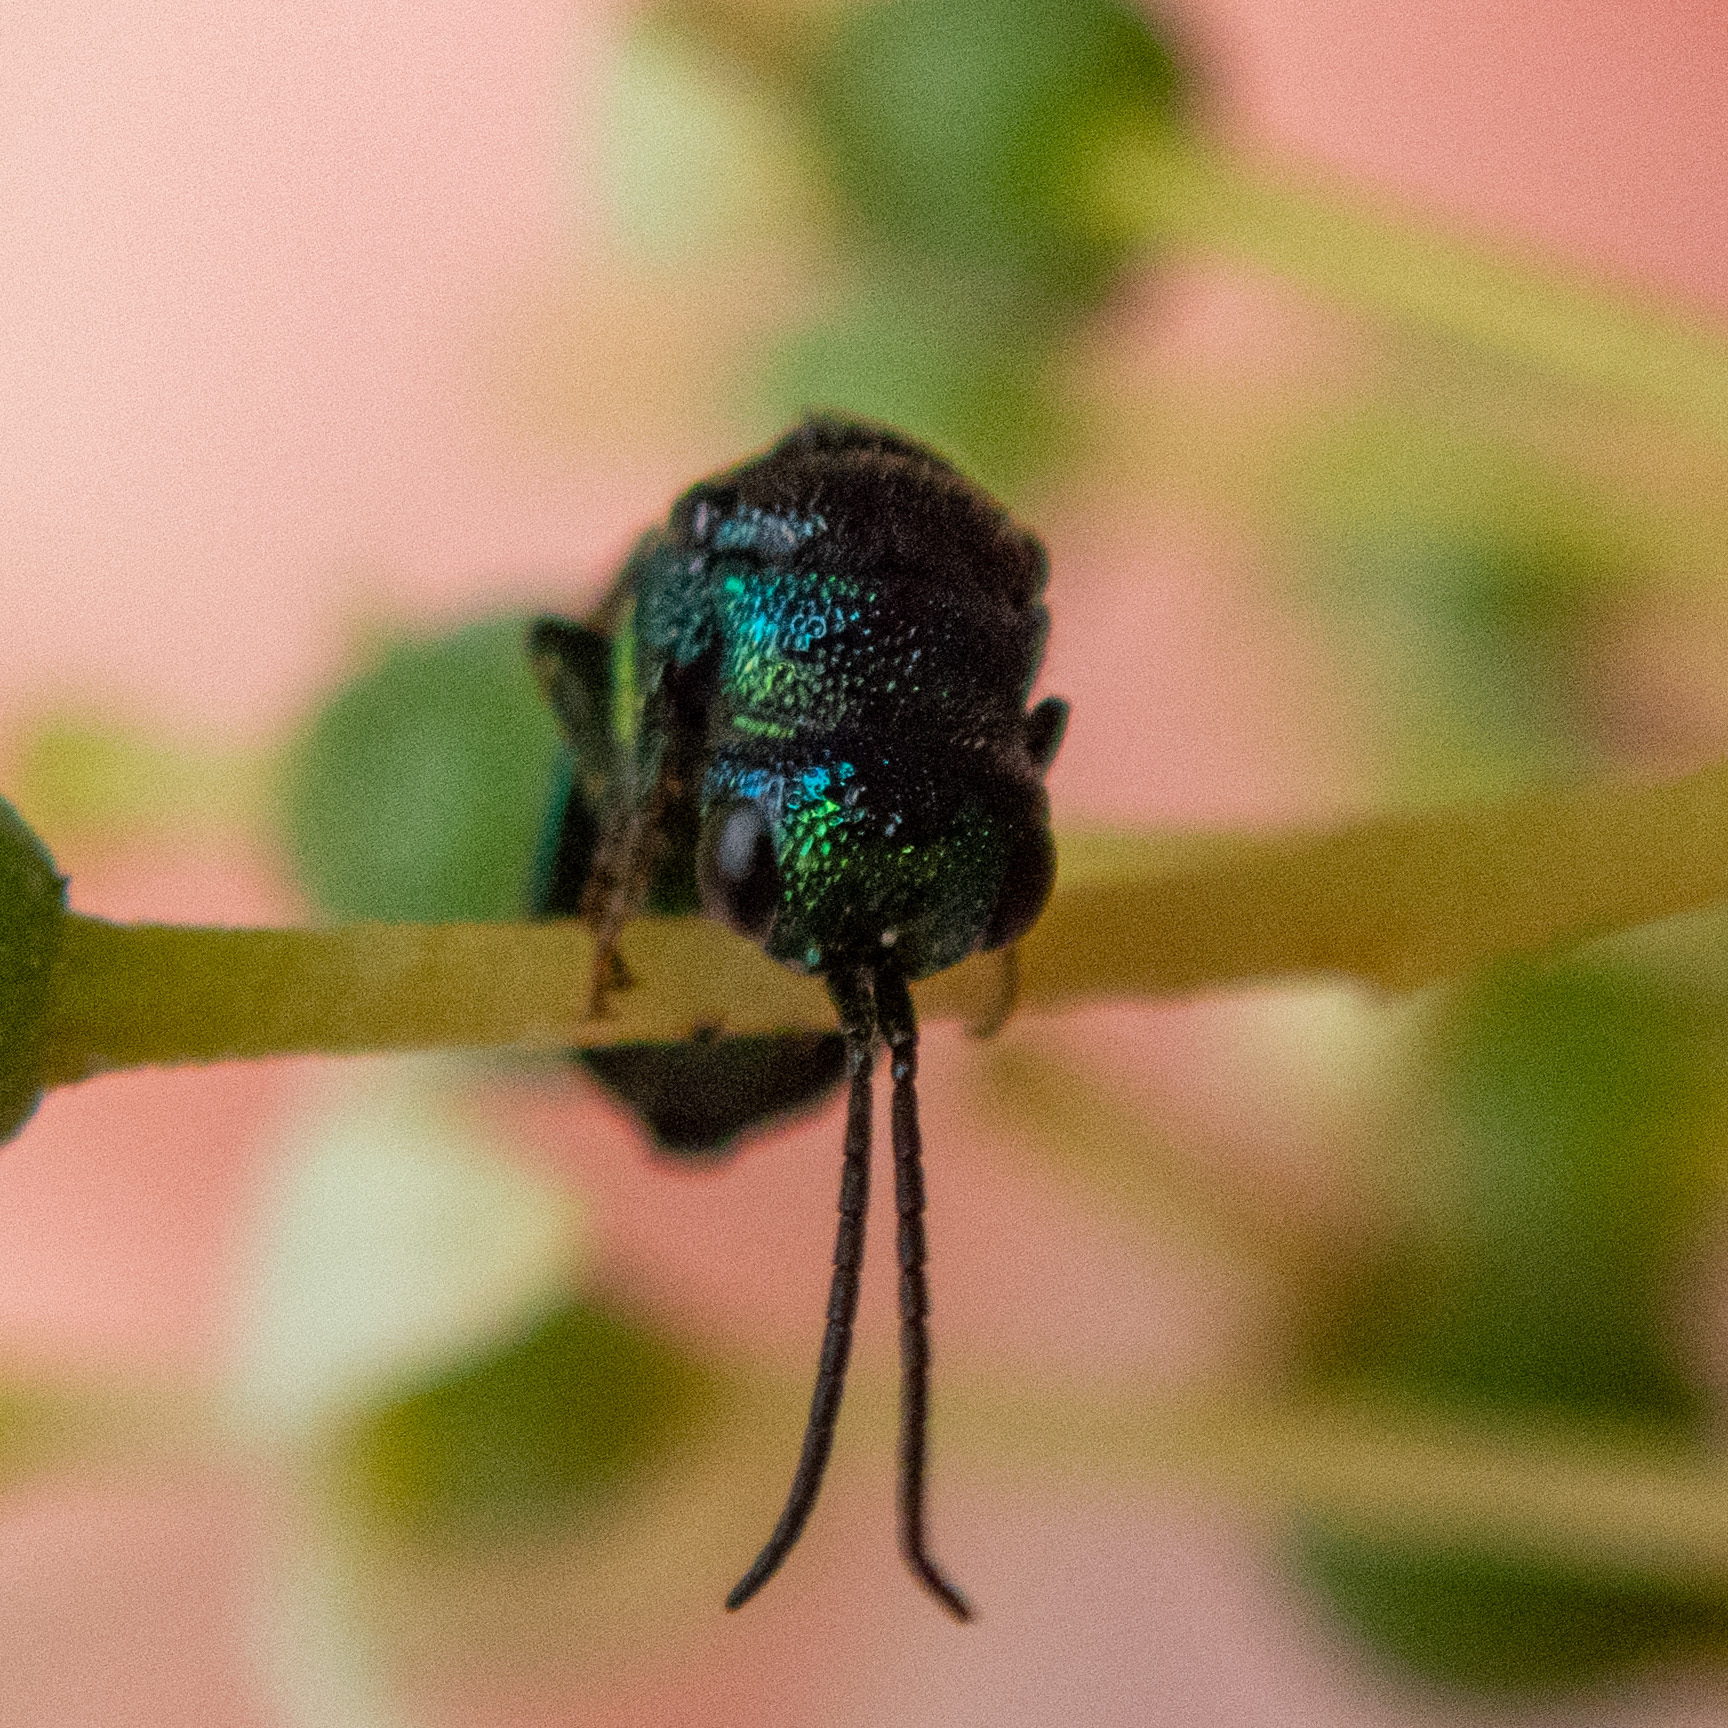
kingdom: Animalia
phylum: Arthropoda
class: Insecta
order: Hymenoptera
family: Chrysididae
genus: Elampus
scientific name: Elampus
